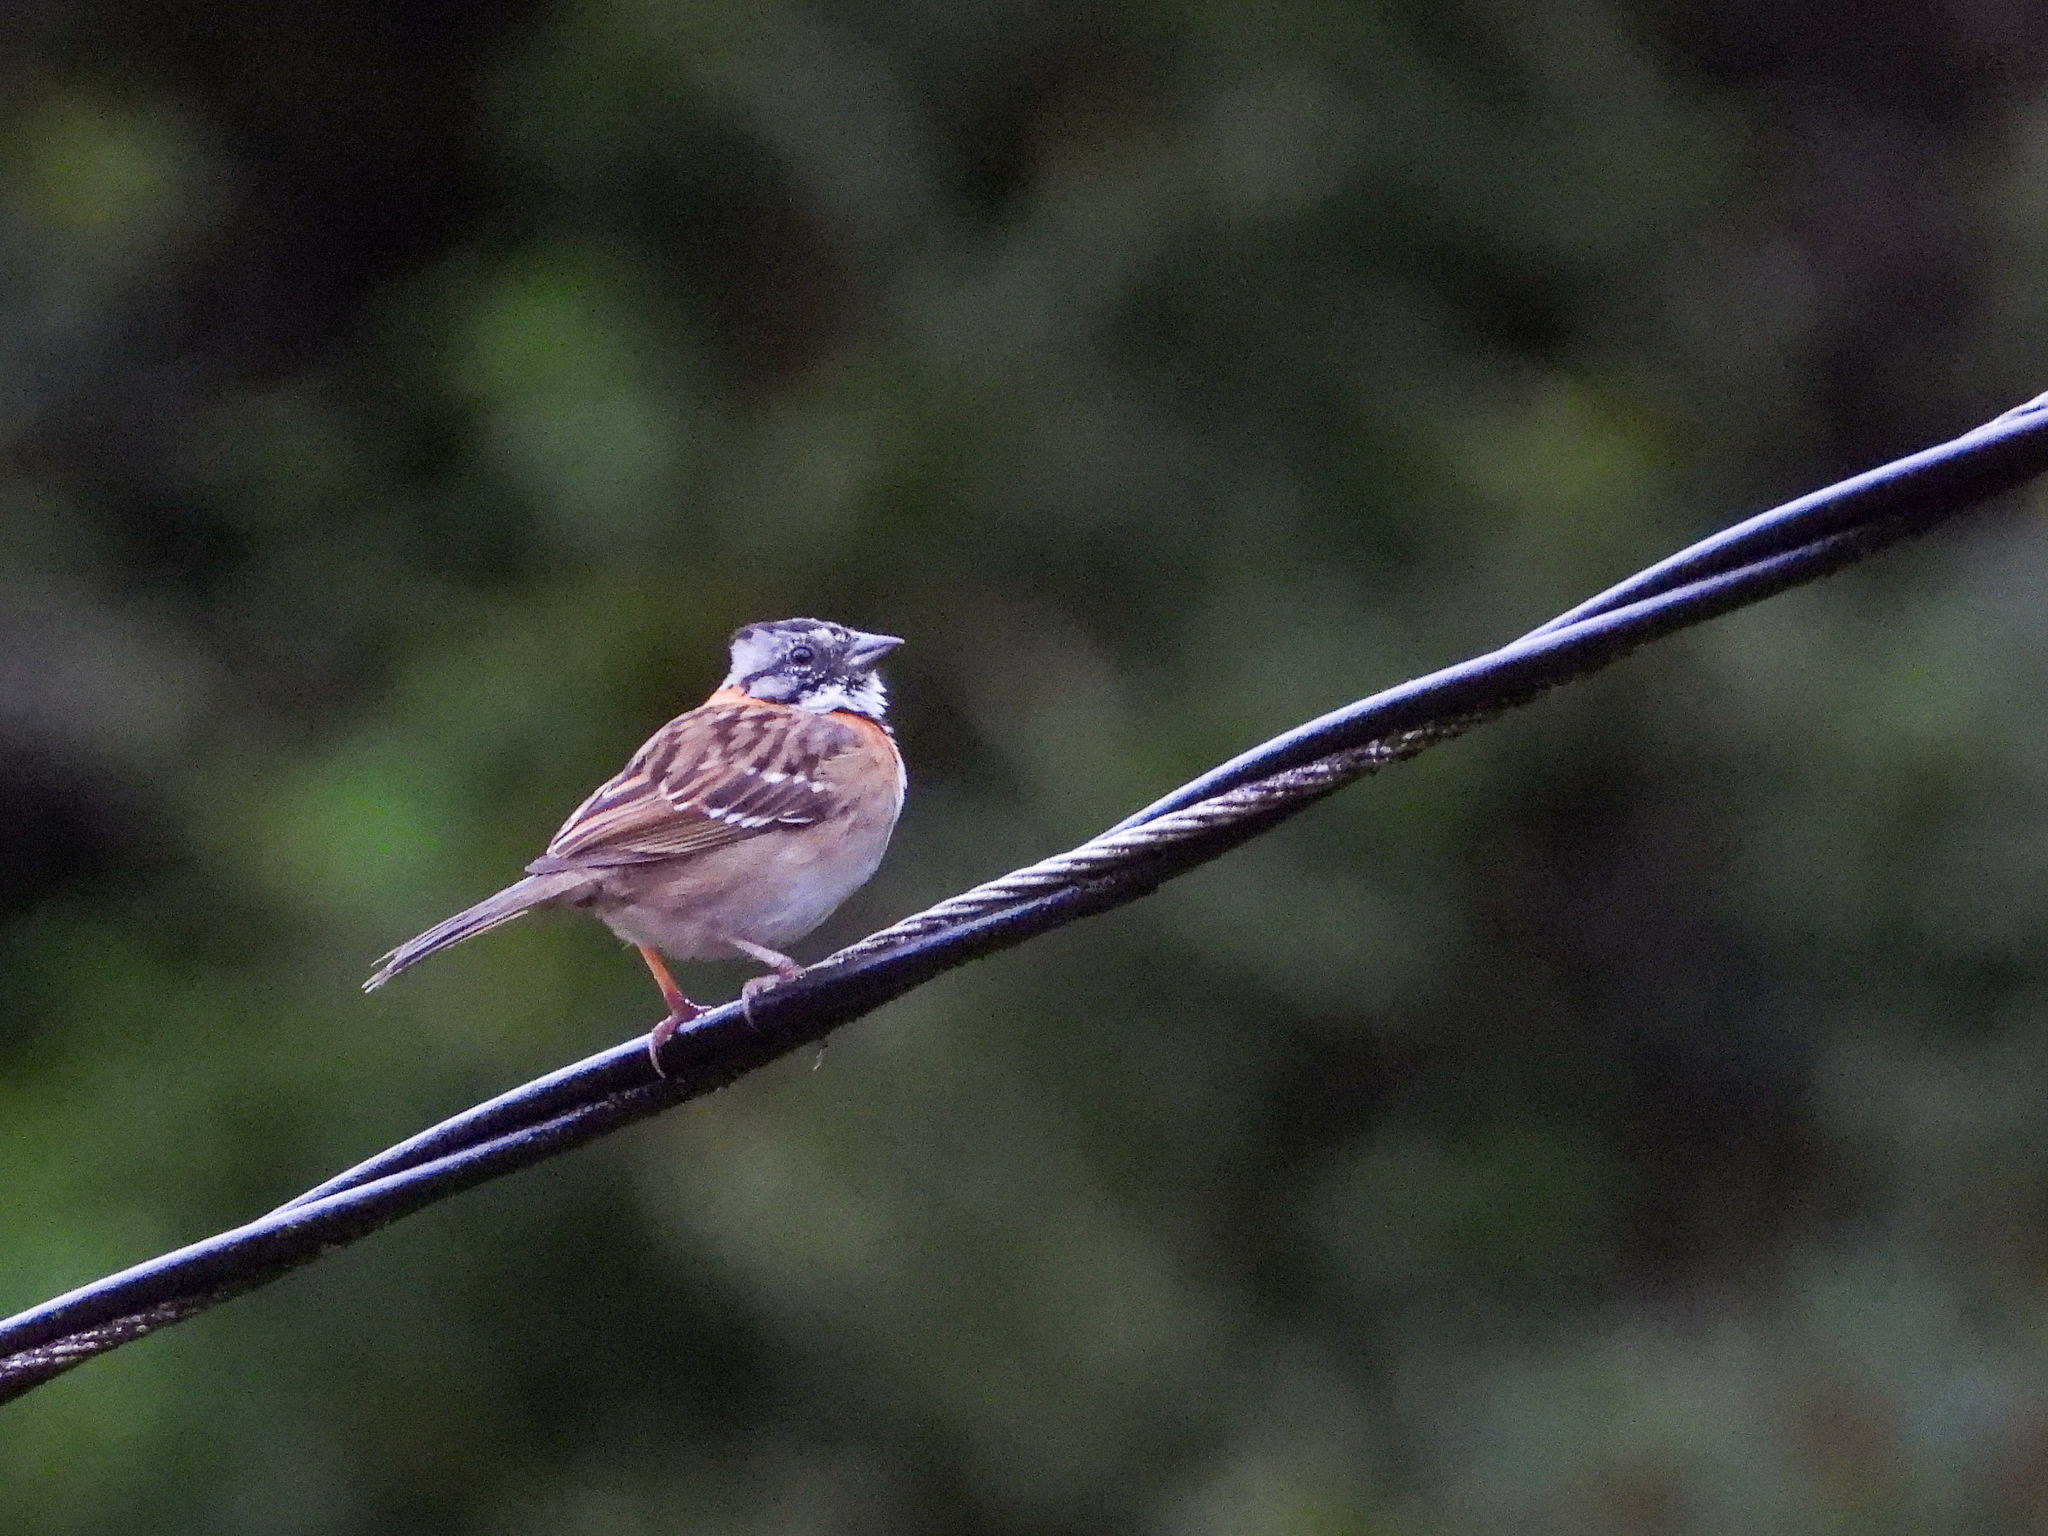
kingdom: Animalia
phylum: Chordata
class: Aves
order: Passeriformes
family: Passerellidae
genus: Zonotrichia
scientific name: Zonotrichia capensis
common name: Rufous-collared sparrow
